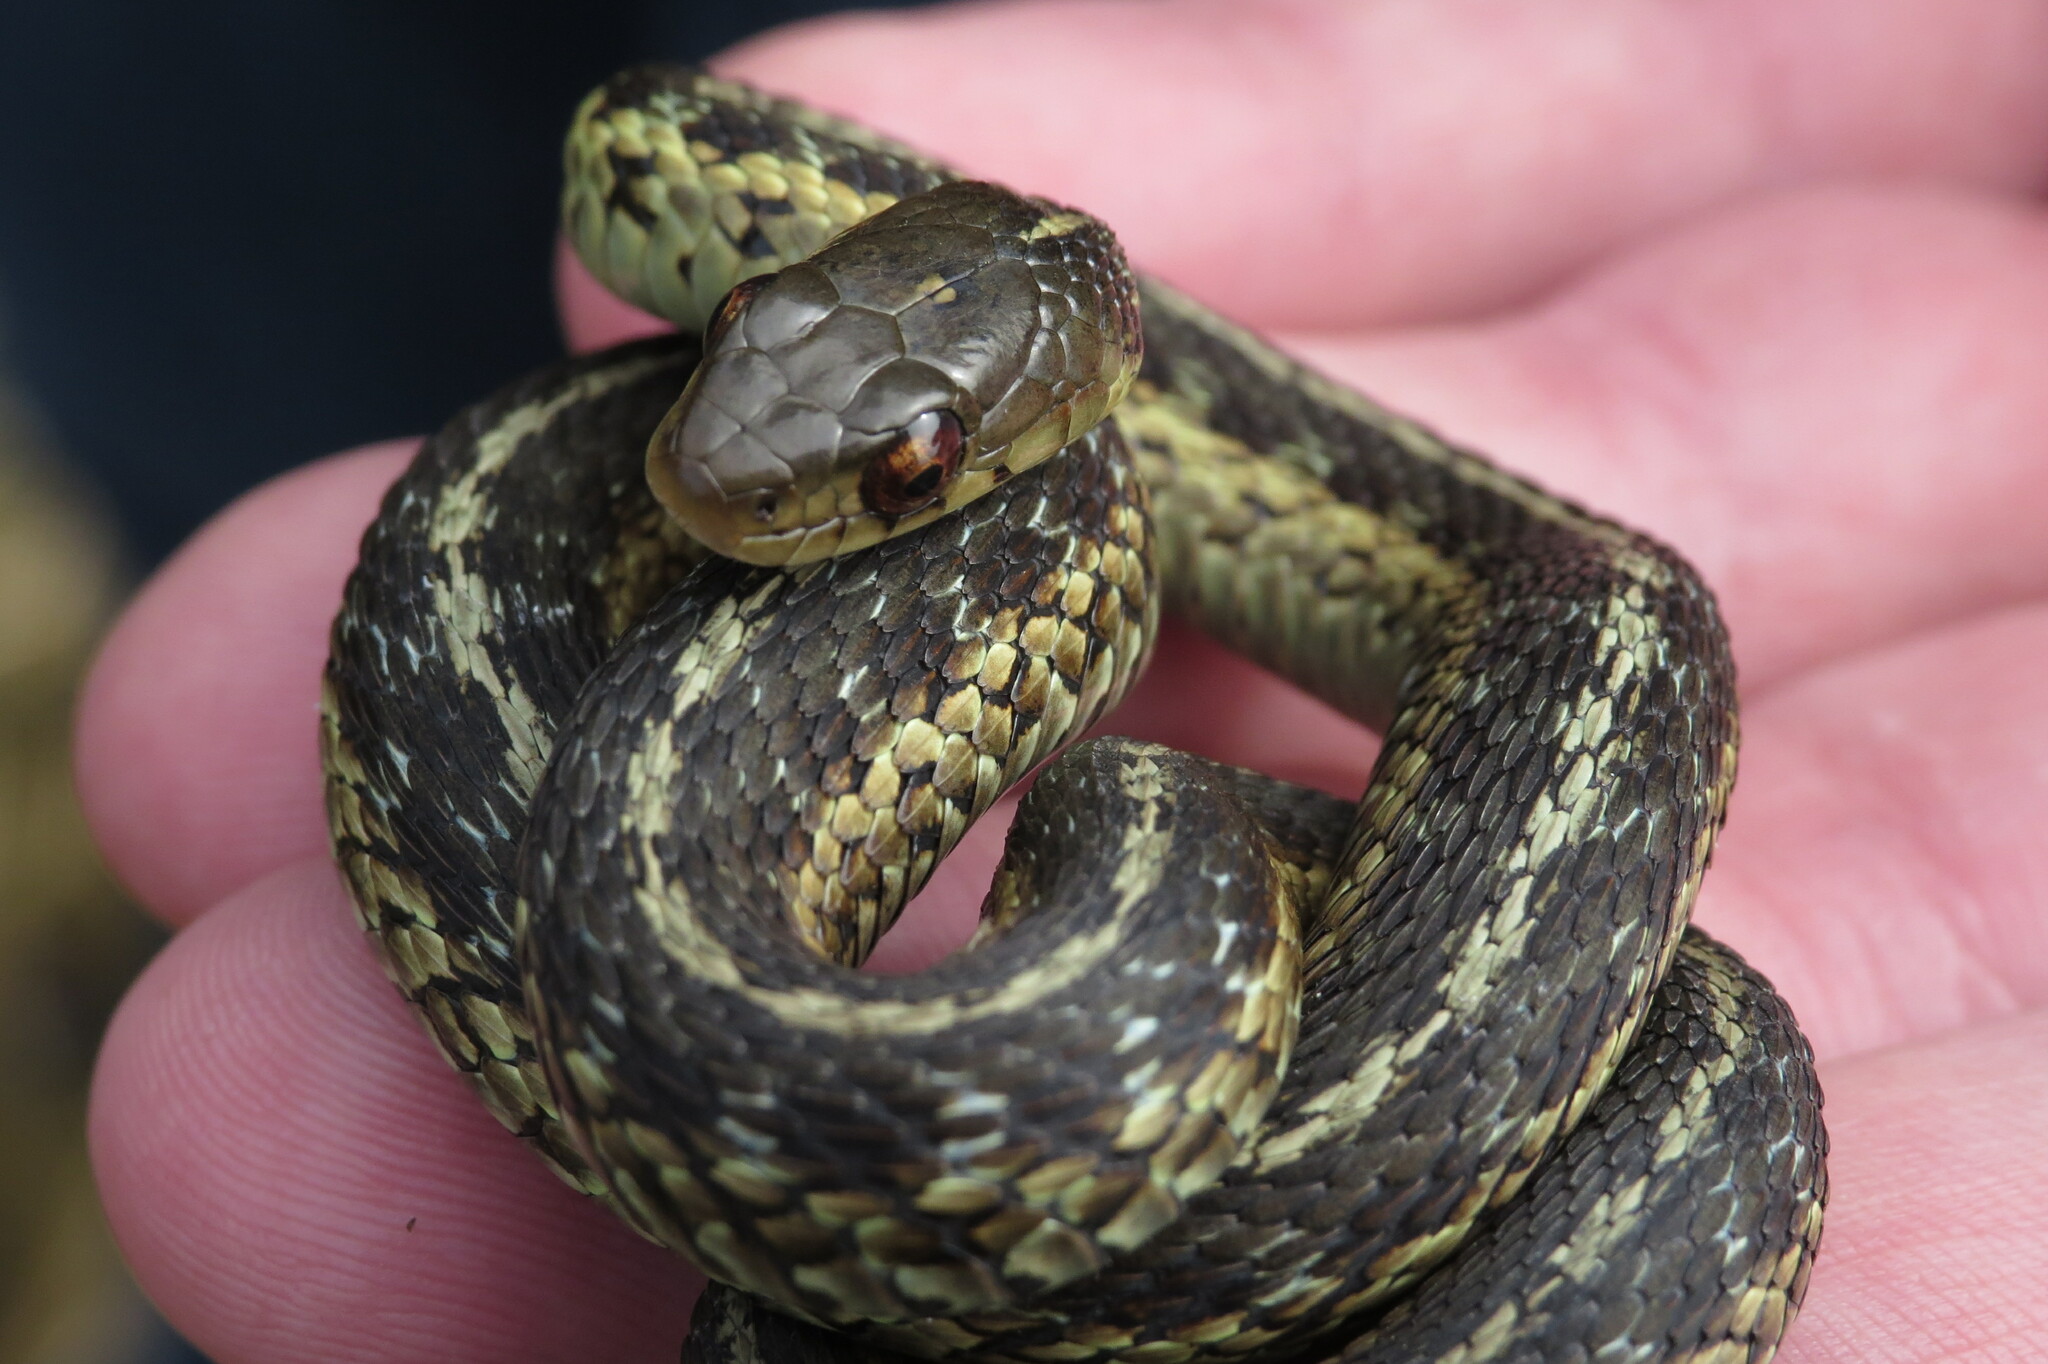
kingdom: Animalia
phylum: Chordata
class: Squamata
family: Colubridae
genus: Thamnophis
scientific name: Thamnophis sirtalis
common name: Common garter snake
